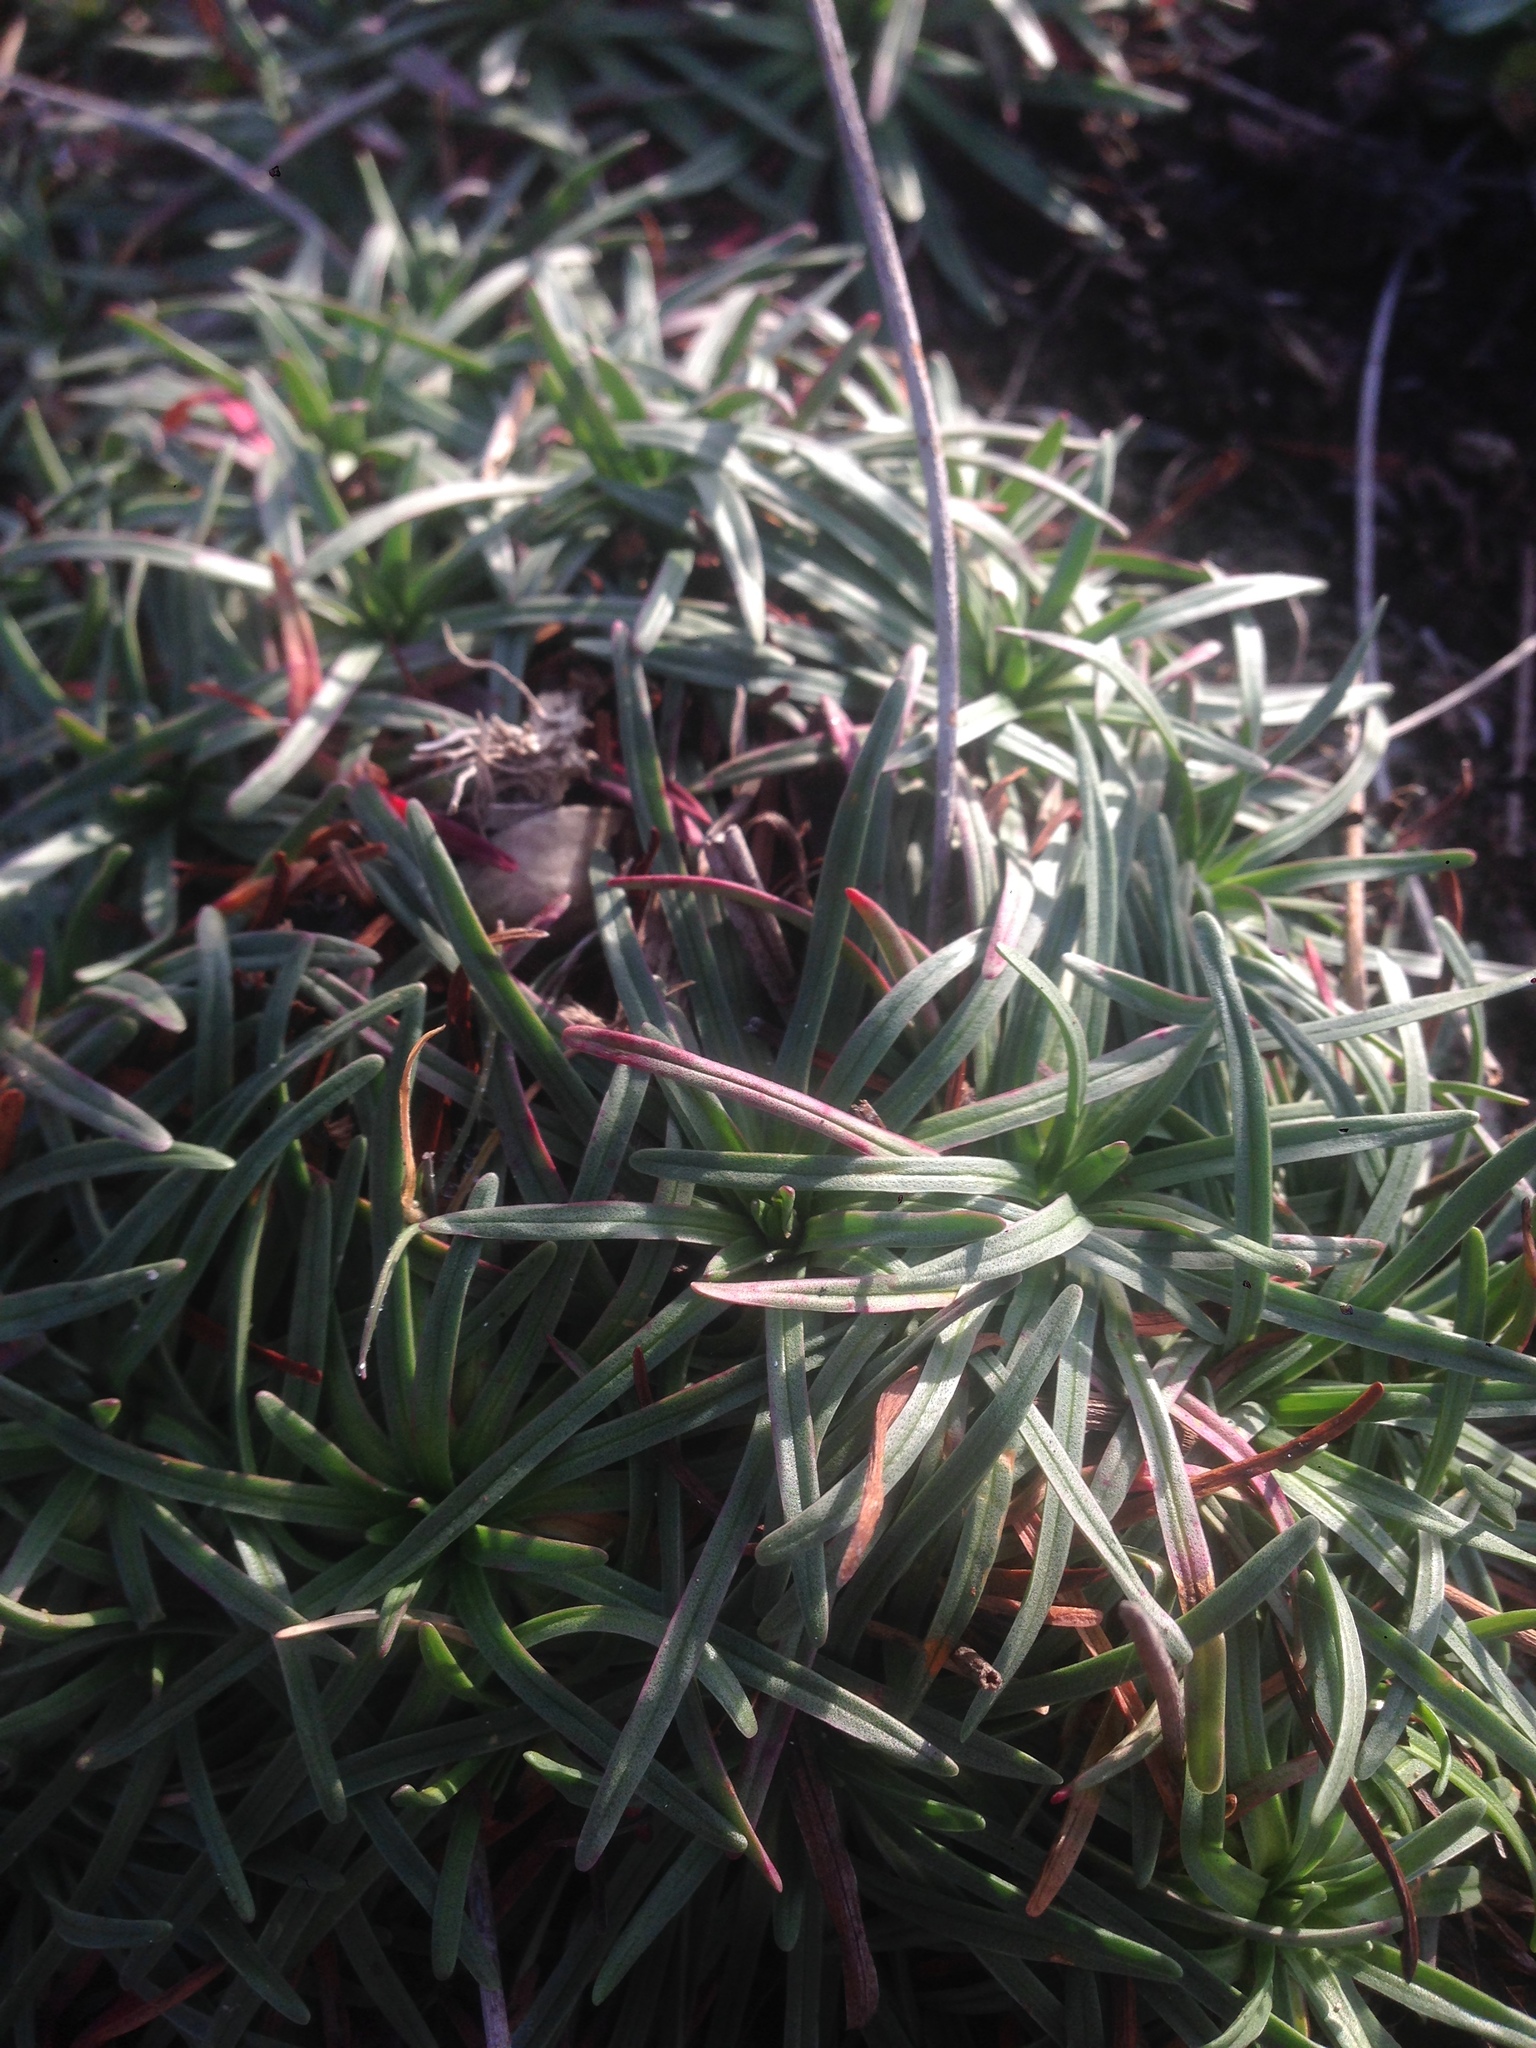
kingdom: Plantae
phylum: Tracheophyta
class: Magnoliopsida
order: Caryophyllales
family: Plumbaginaceae
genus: Armeria
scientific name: Armeria maritima
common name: Thrift
